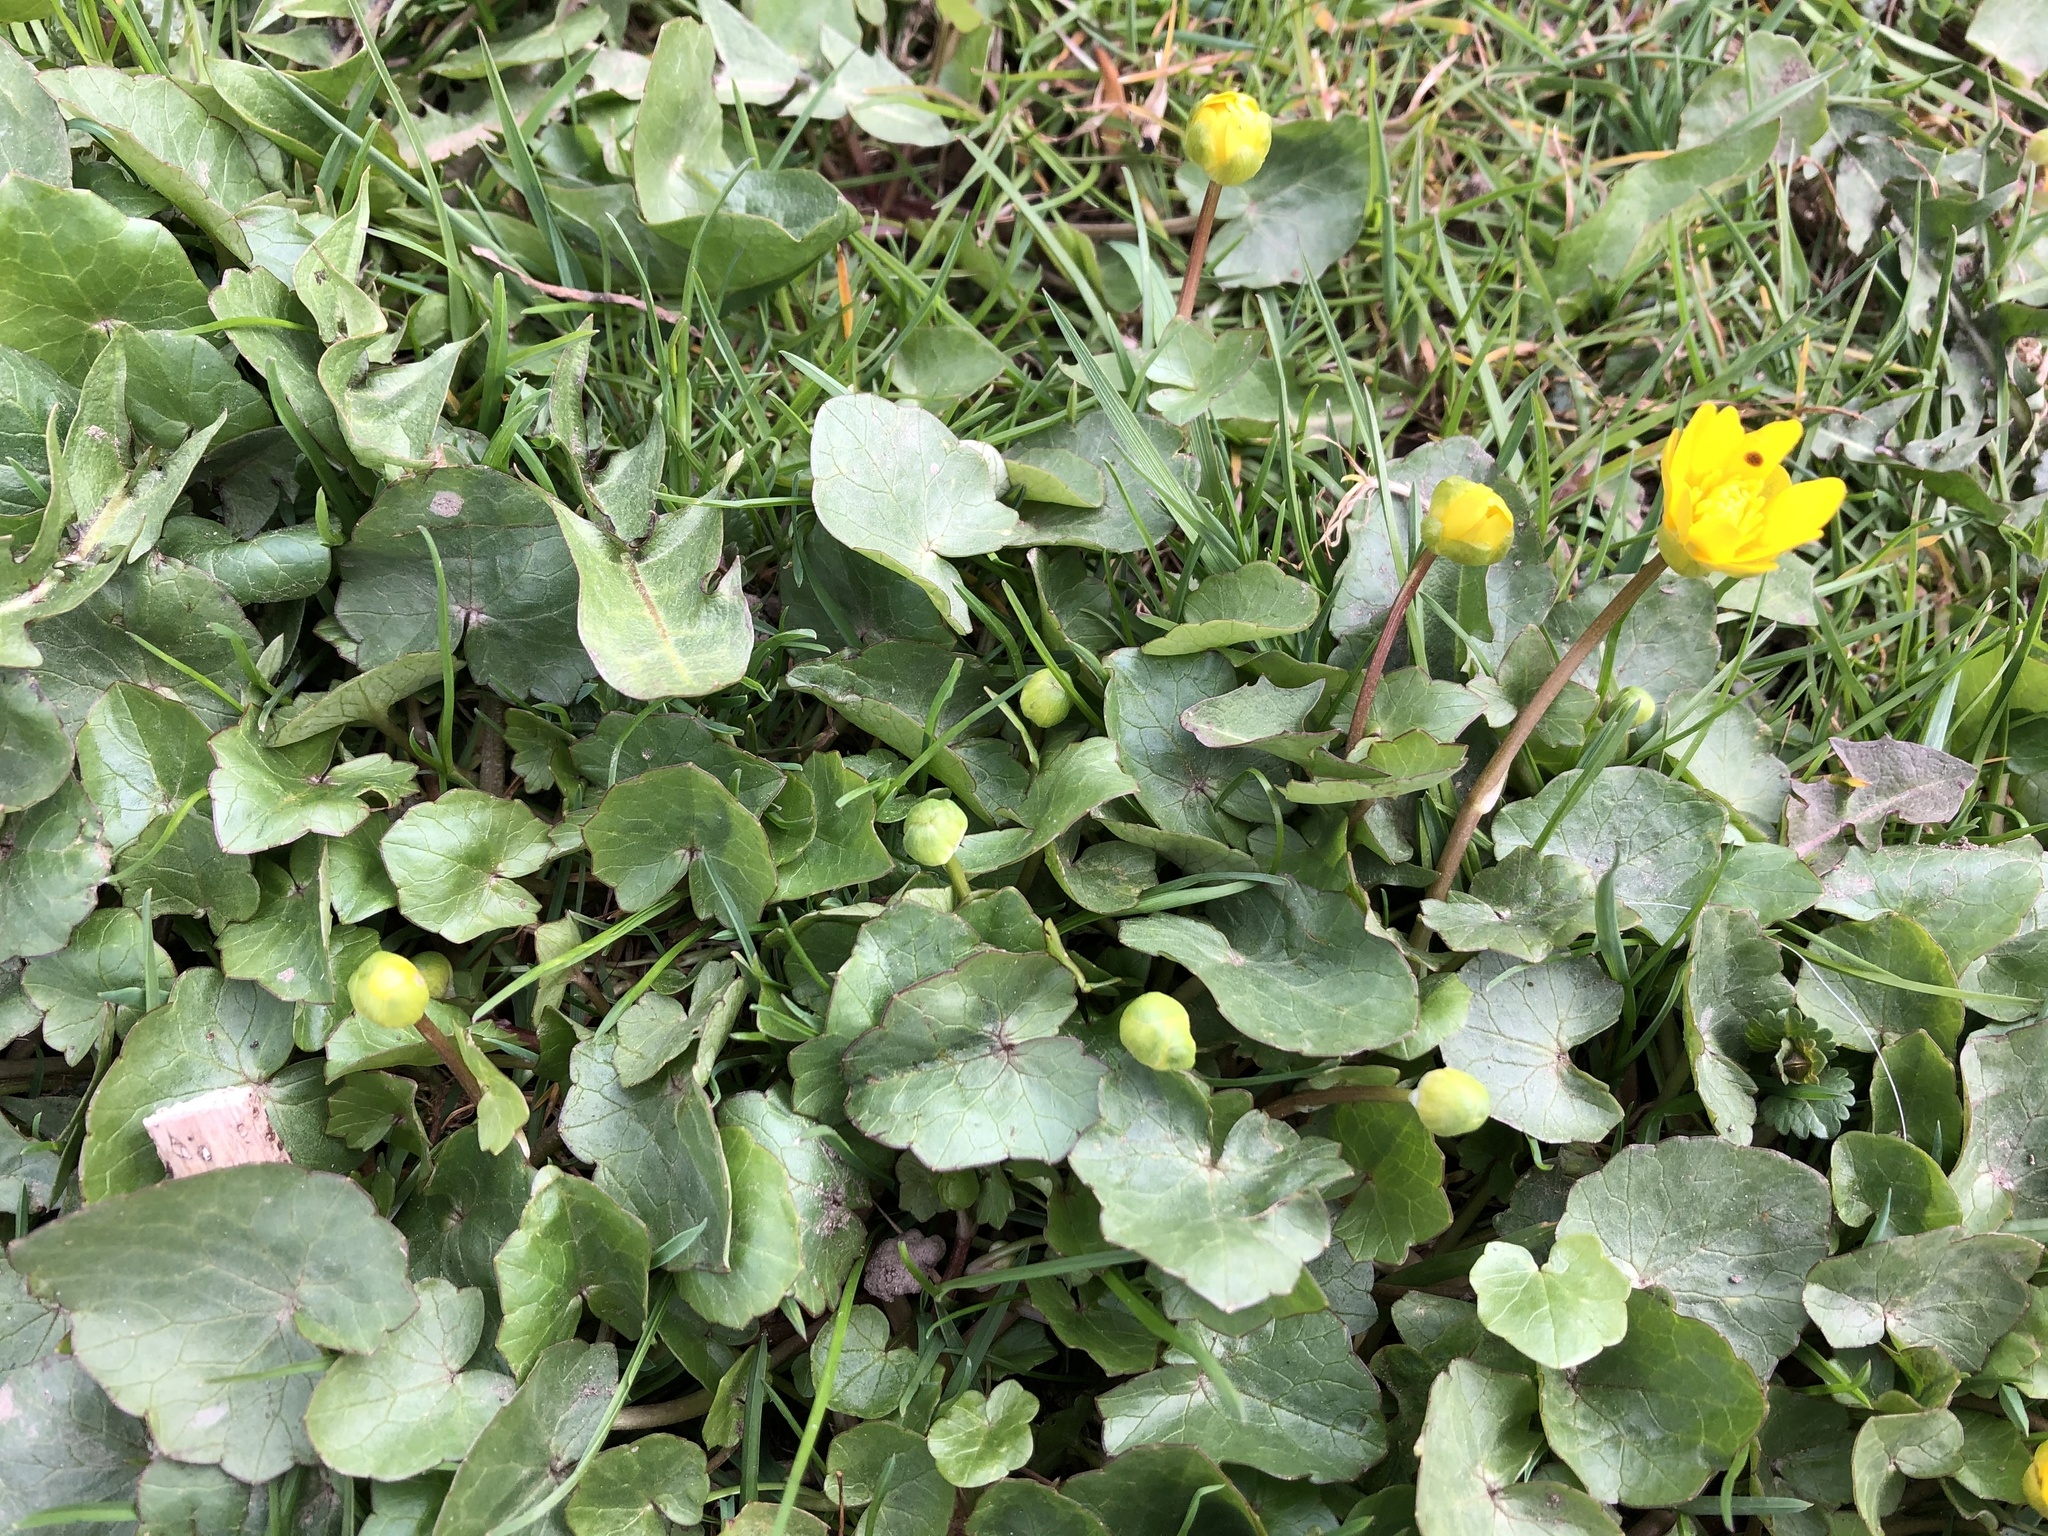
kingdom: Plantae
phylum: Tracheophyta
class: Magnoliopsida
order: Ranunculales
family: Ranunculaceae
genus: Ficaria
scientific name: Ficaria verna
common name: Lesser celandine
